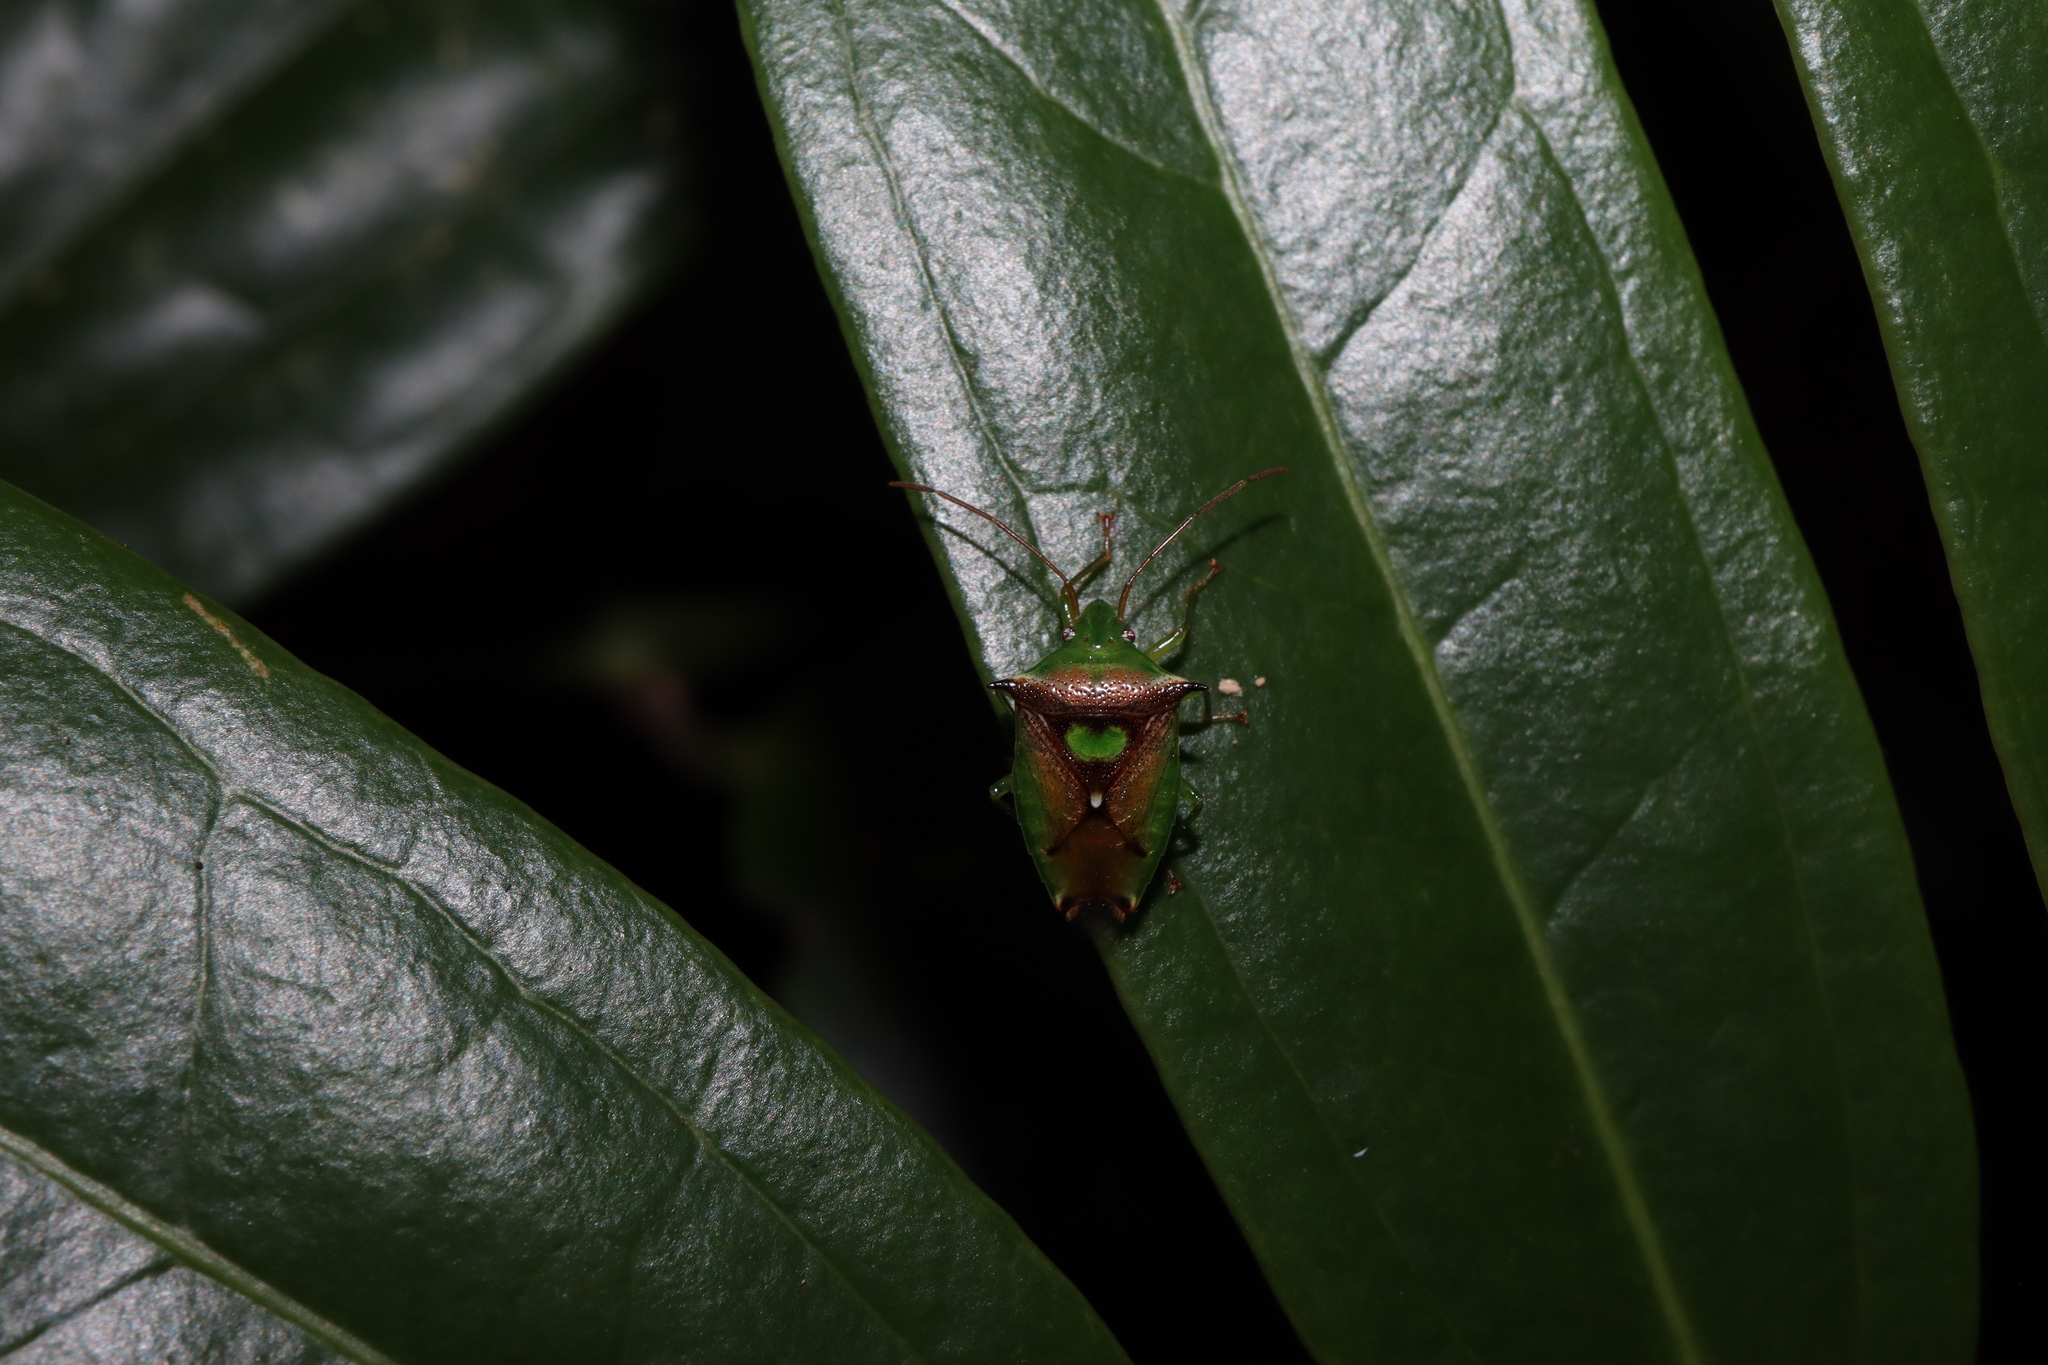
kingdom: Animalia
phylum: Arthropoda
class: Insecta
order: Hemiptera
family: Acanthosomatidae
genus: Sastragala
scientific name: Sastragala versicolor
